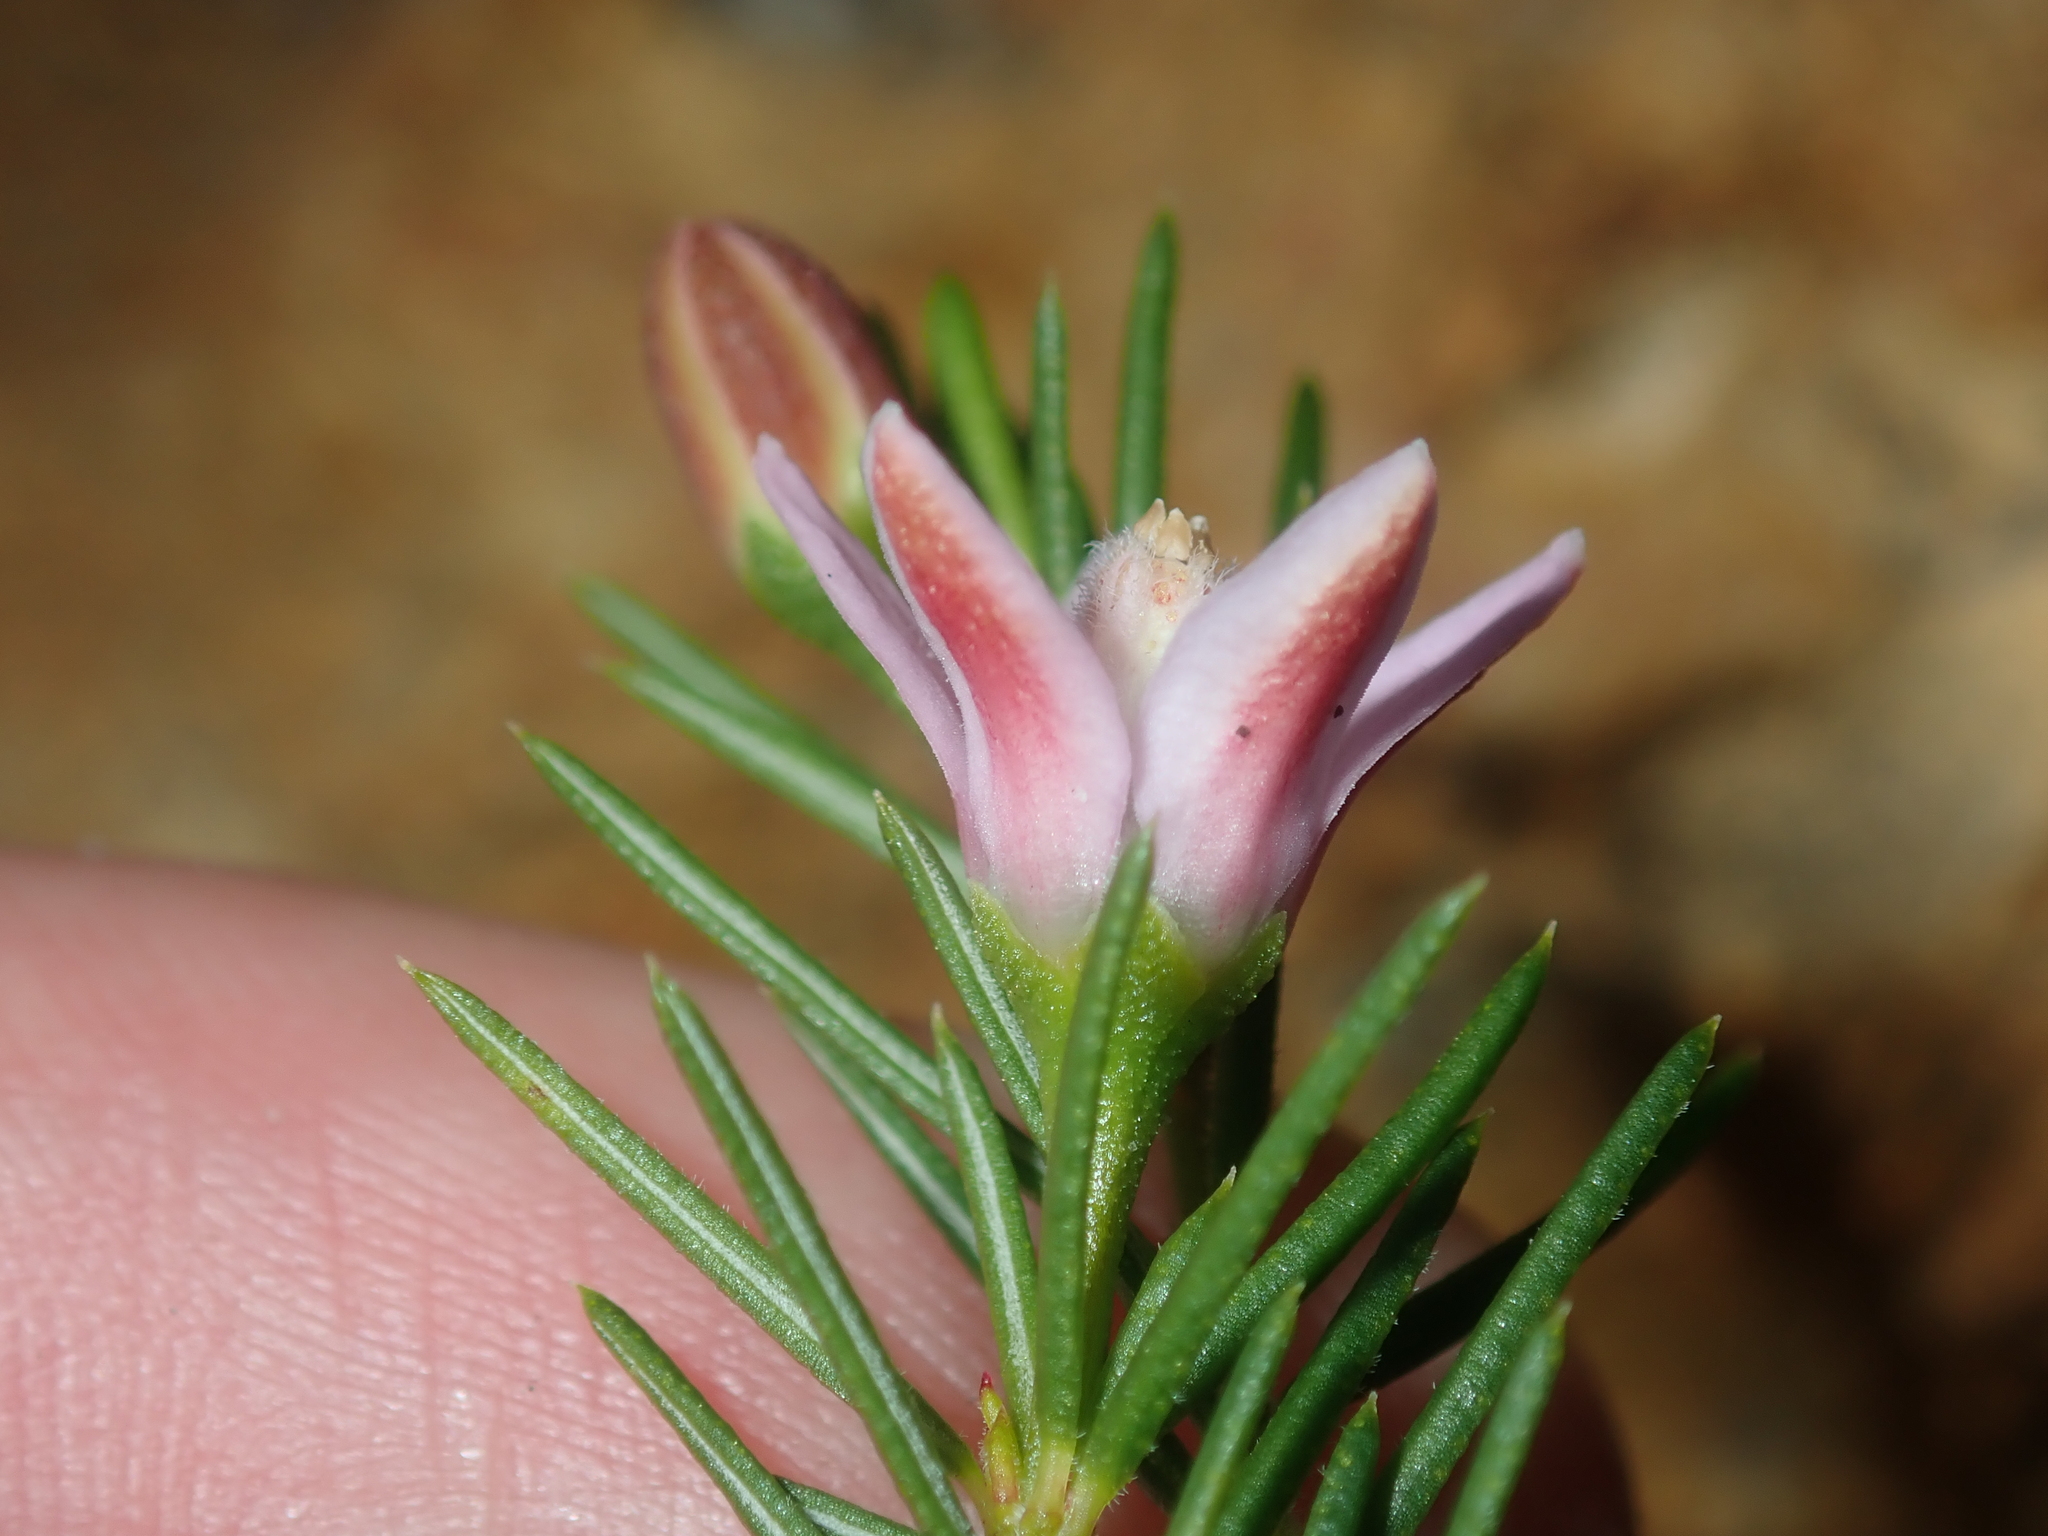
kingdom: Plantae
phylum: Tracheophyta
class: Magnoliopsida
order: Sapindales
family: Rutaceae
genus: Philotheca
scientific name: Philotheca pinoides
